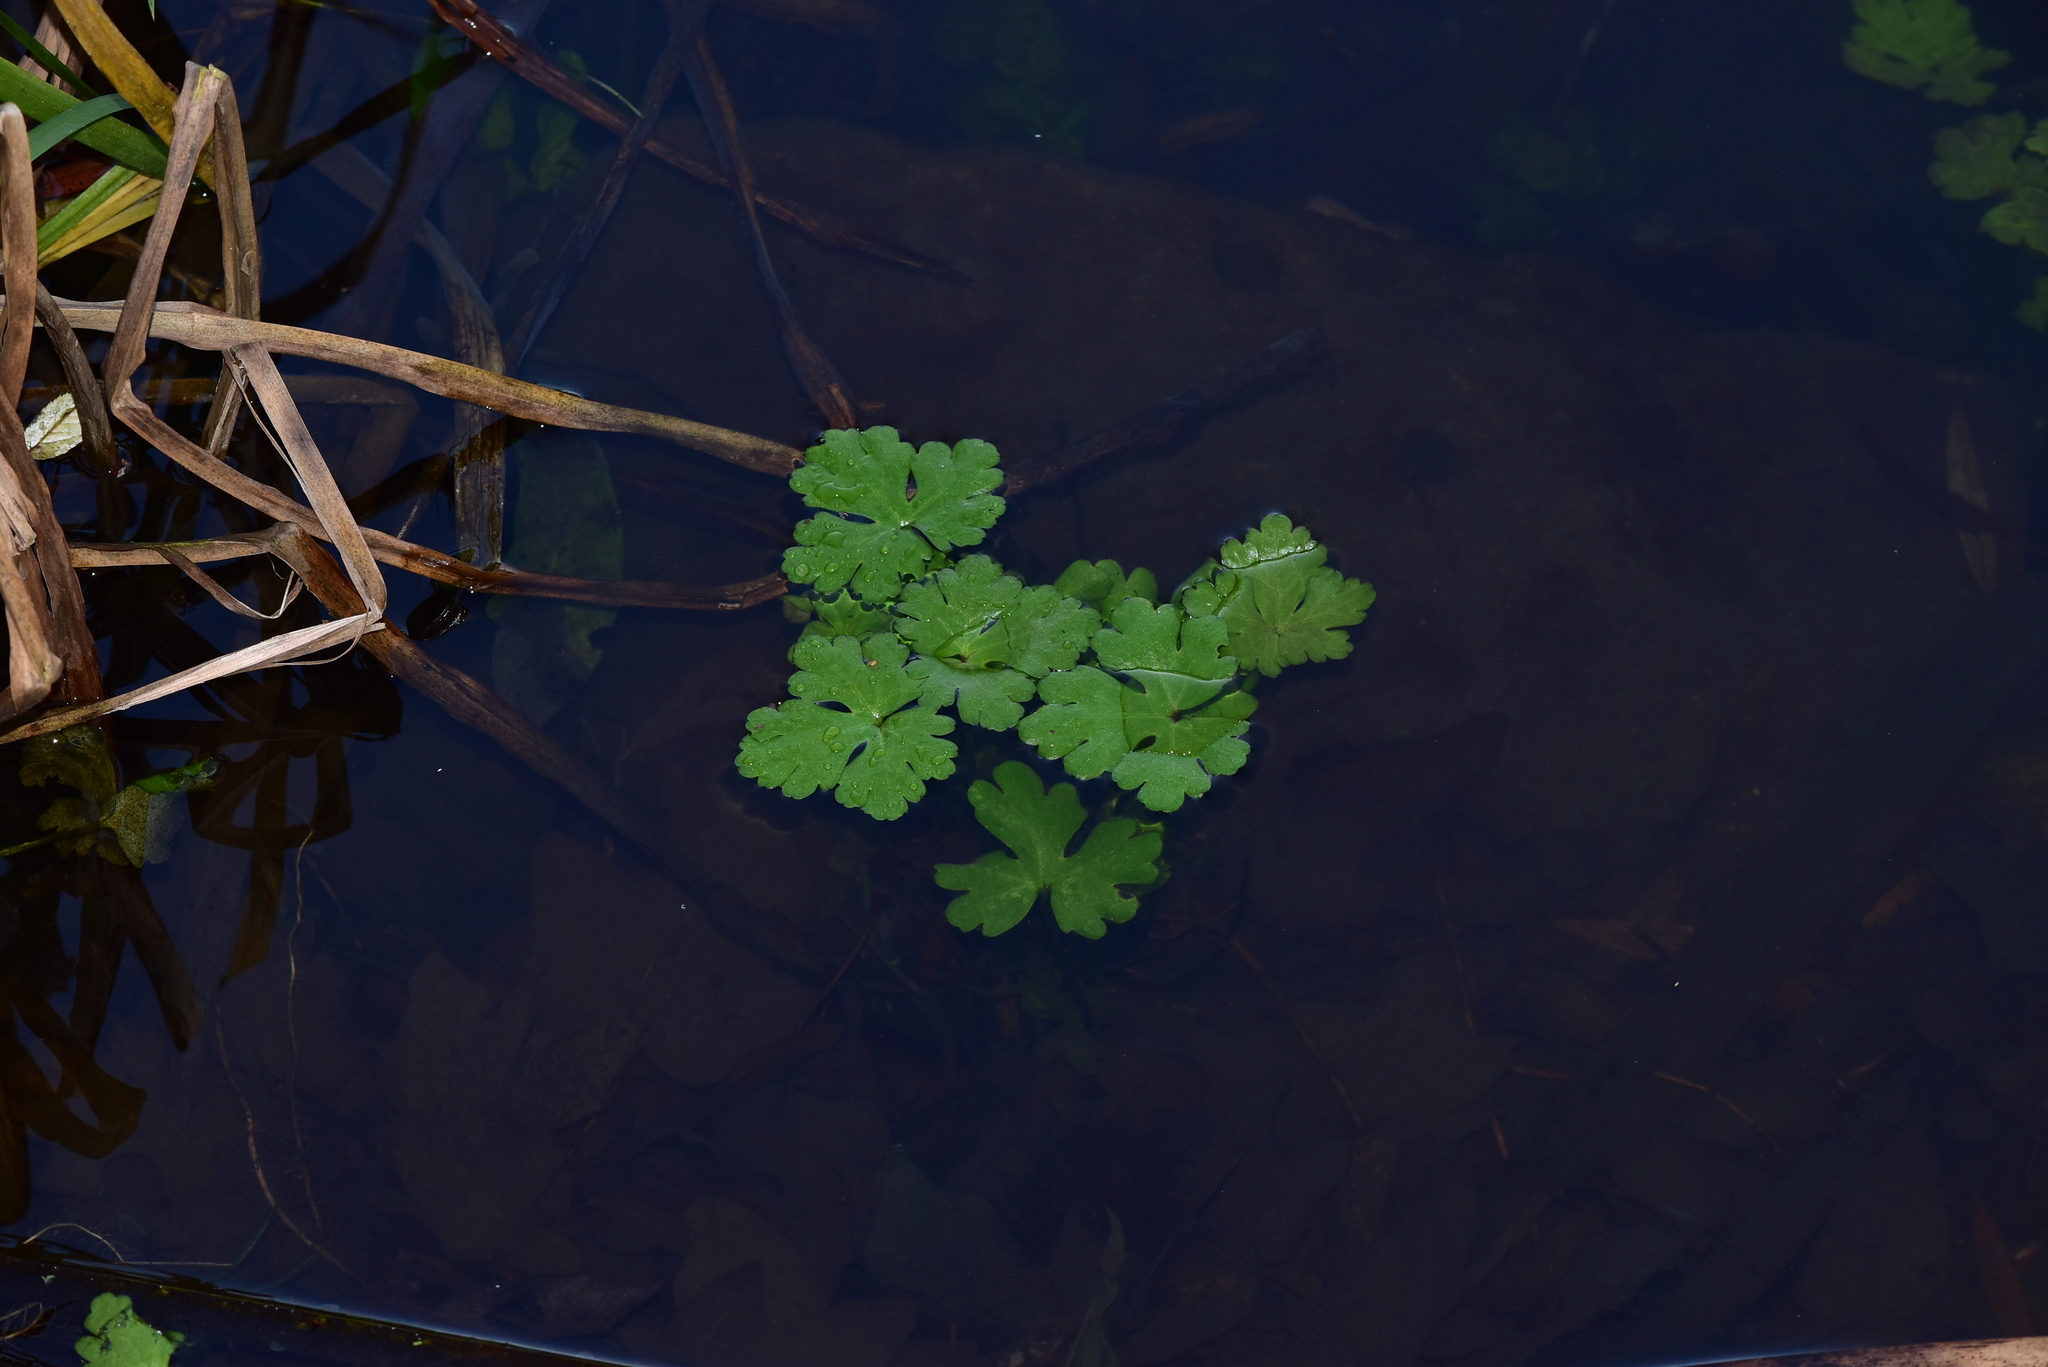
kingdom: Plantae
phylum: Tracheophyta
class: Magnoliopsida
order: Ranunculales
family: Ranunculaceae
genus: Ranunculus
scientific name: Ranunculus aquatilis
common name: Common water-crowfoot
